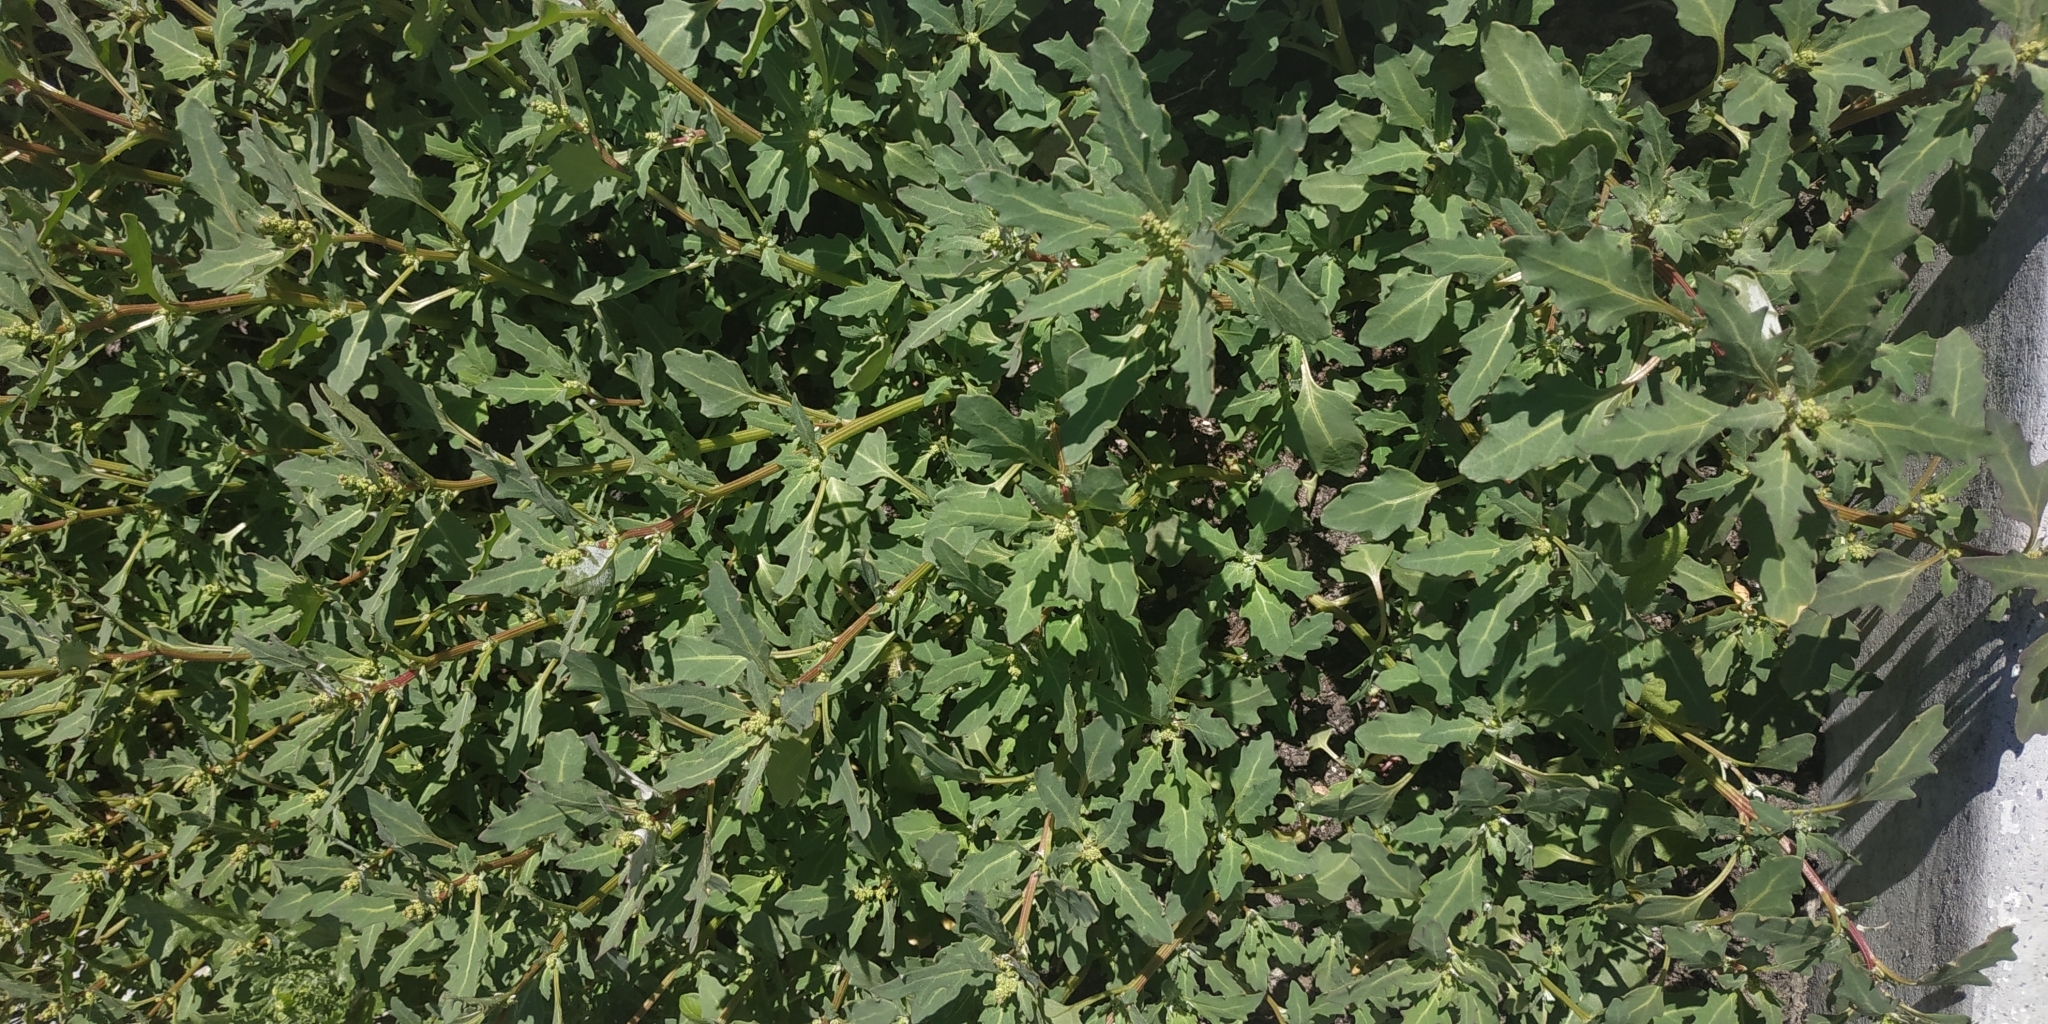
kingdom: Plantae
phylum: Tracheophyta
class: Magnoliopsida
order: Caryophyllales
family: Amaranthaceae
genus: Oxybasis
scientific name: Oxybasis glauca
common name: Glaucous goosefoot
